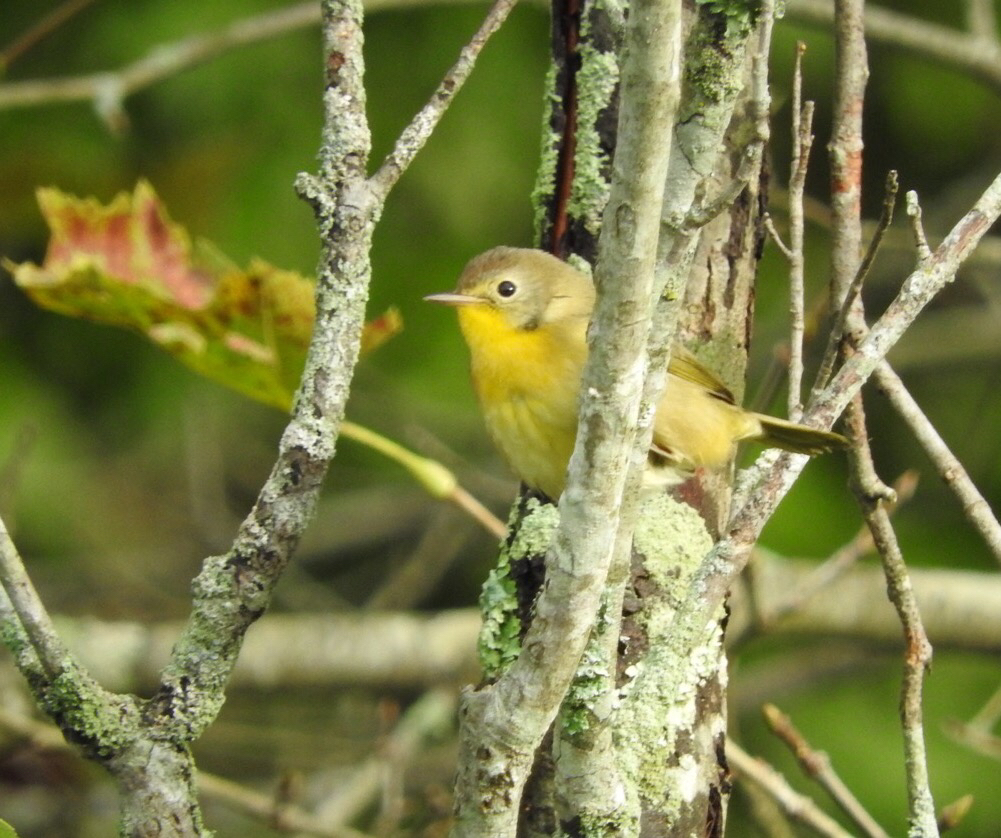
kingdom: Animalia
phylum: Chordata
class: Aves
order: Passeriformes
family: Parulidae
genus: Geothlypis
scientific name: Geothlypis trichas
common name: Common yellowthroat
